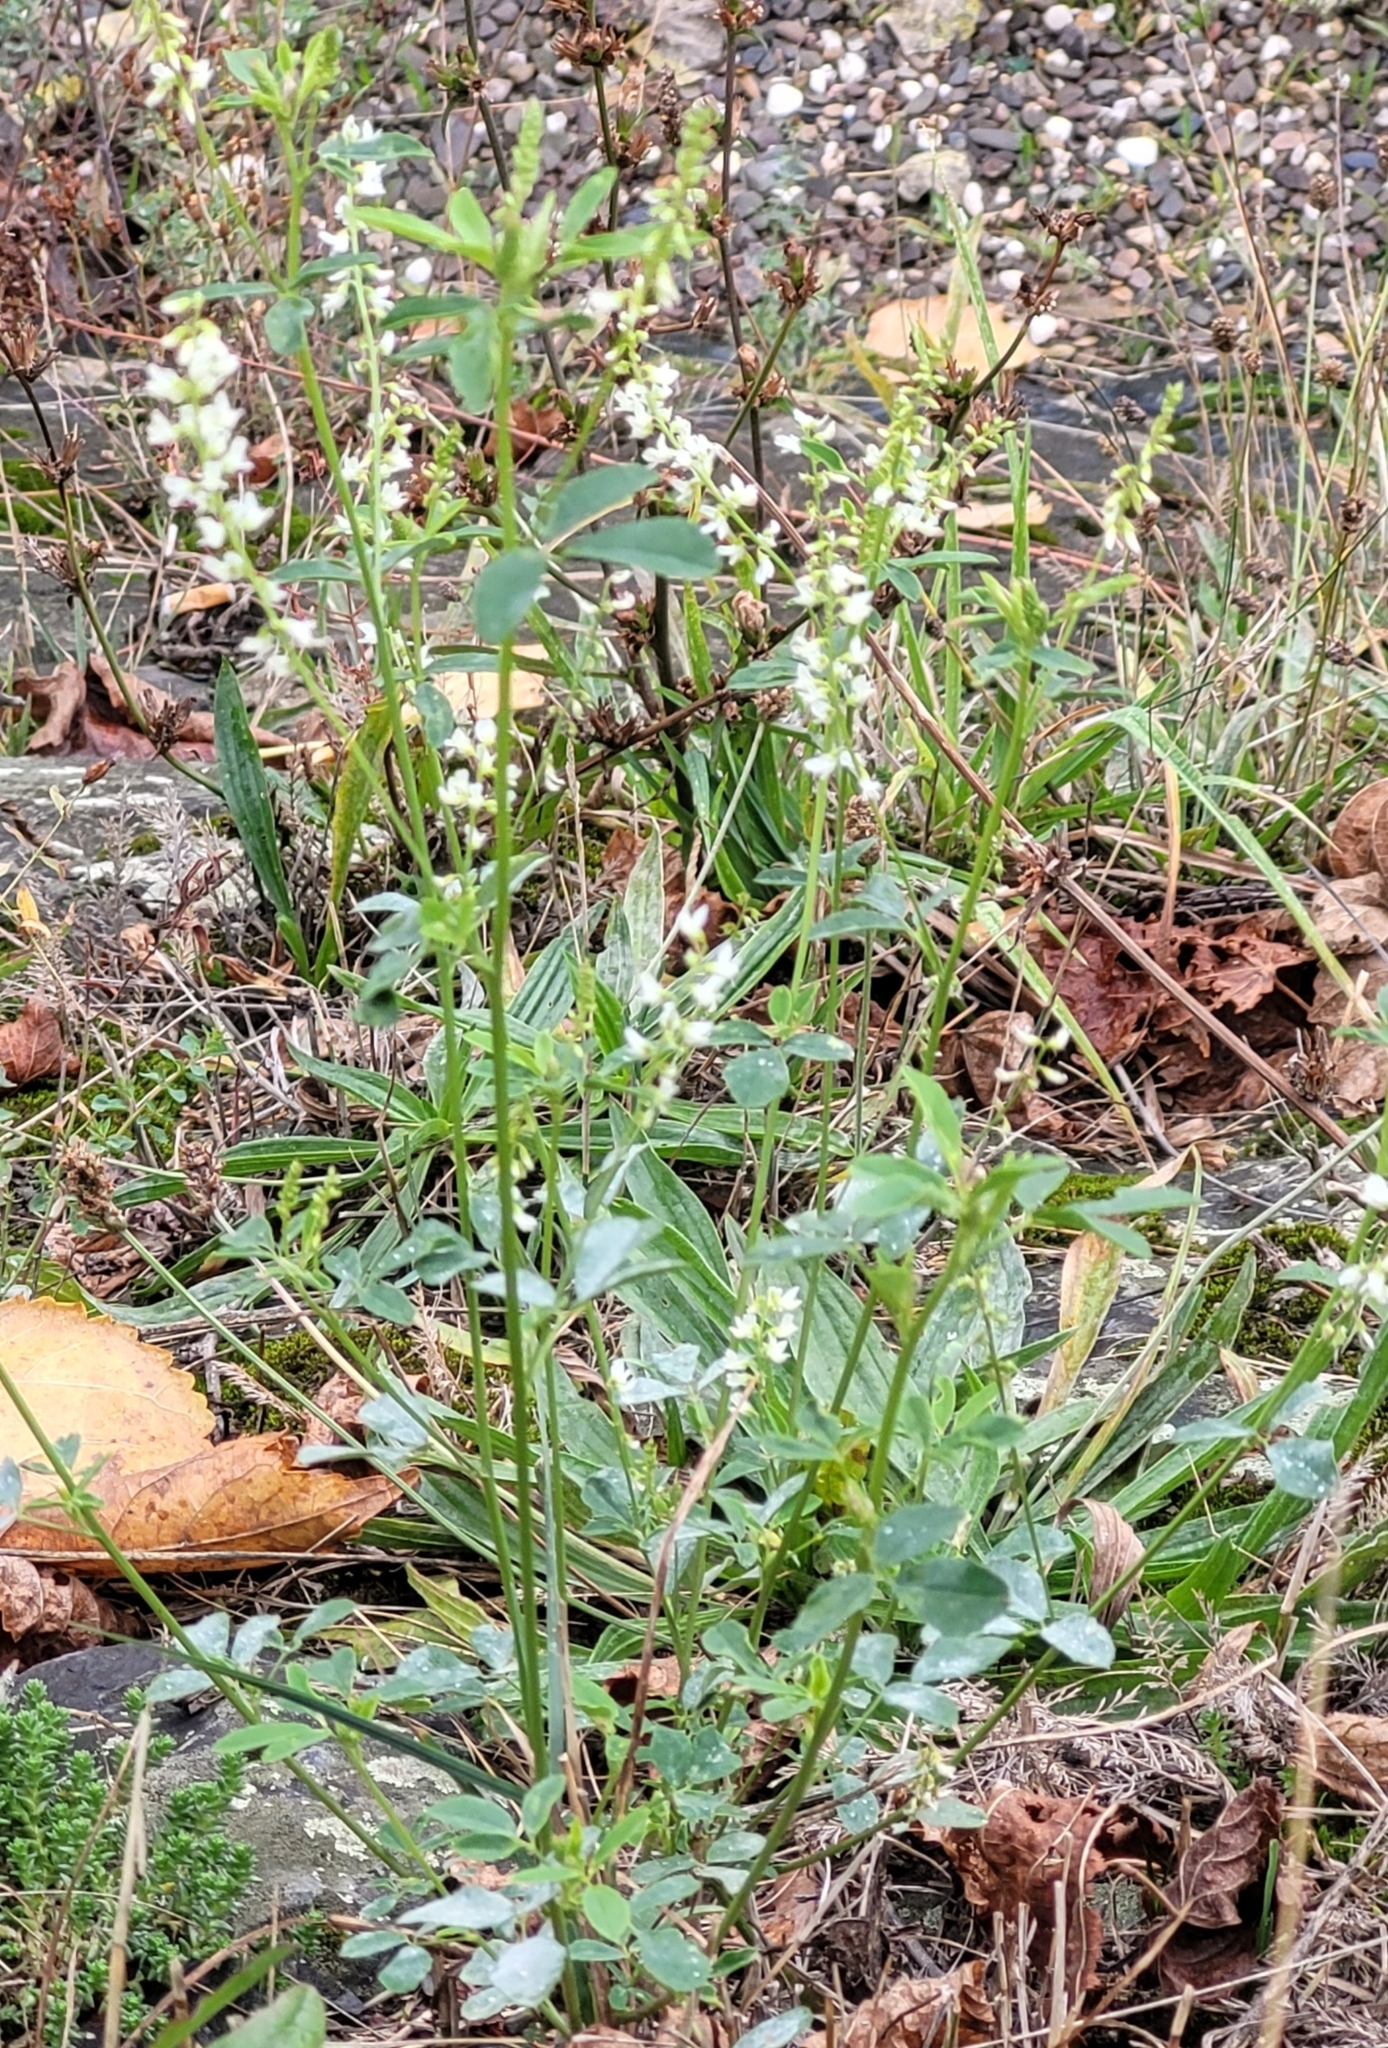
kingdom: Plantae
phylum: Tracheophyta
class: Magnoliopsida
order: Fabales
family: Fabaceae
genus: Melilotus
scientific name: Melilotus albus
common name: White melilot
